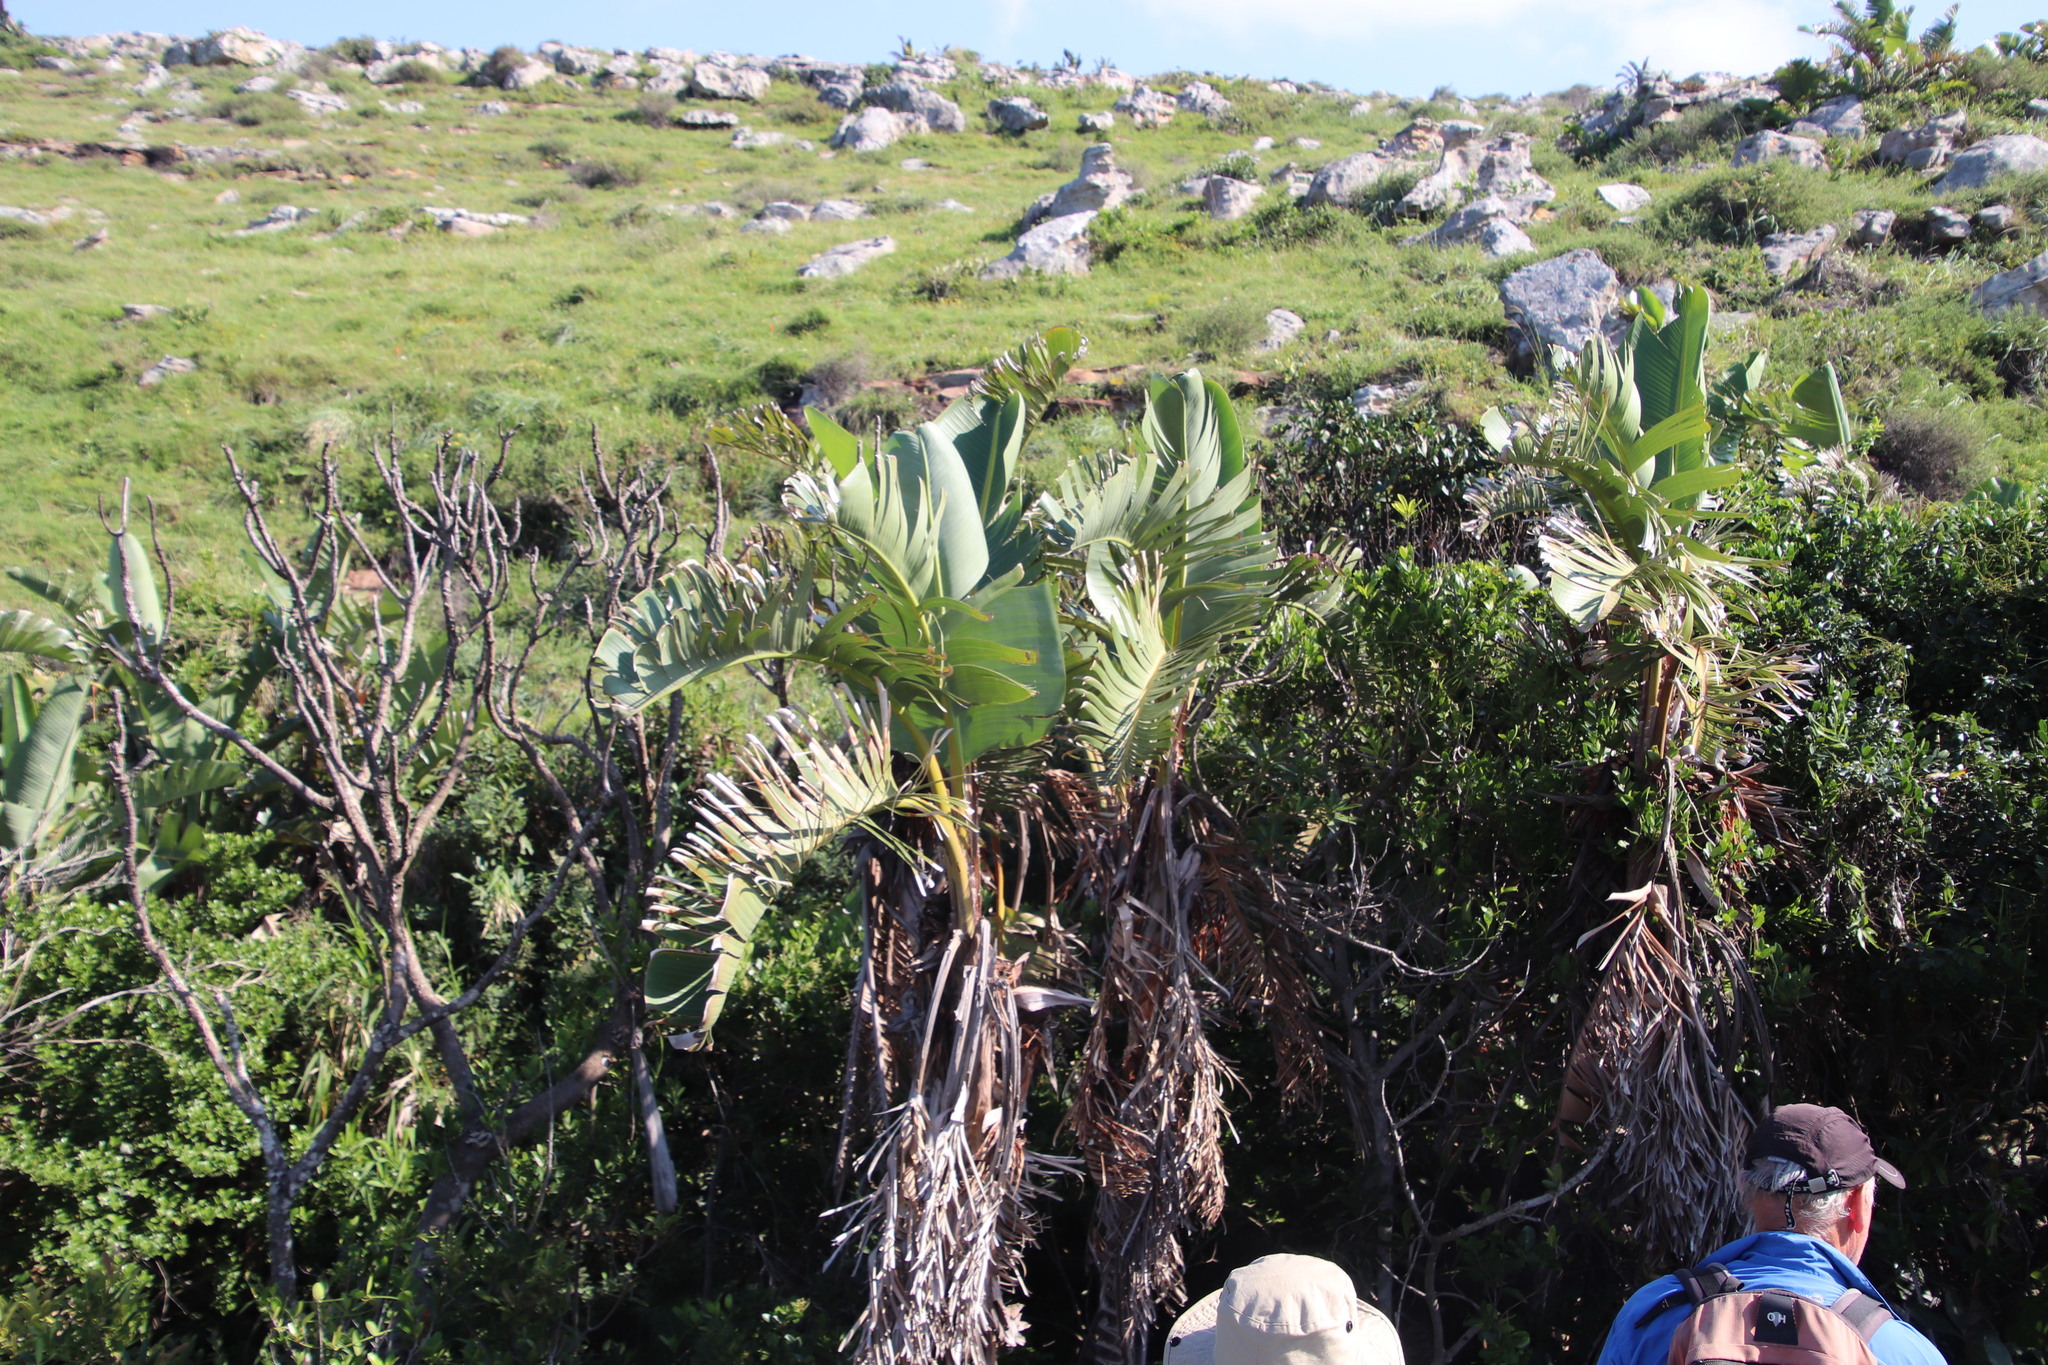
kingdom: Plantae
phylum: Tracheophyta
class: Liliopsida
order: Zingiberales
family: Strelitziaceae
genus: Strelitzia
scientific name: Strelitzia nicolai
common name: Bird-of-paradise tree
